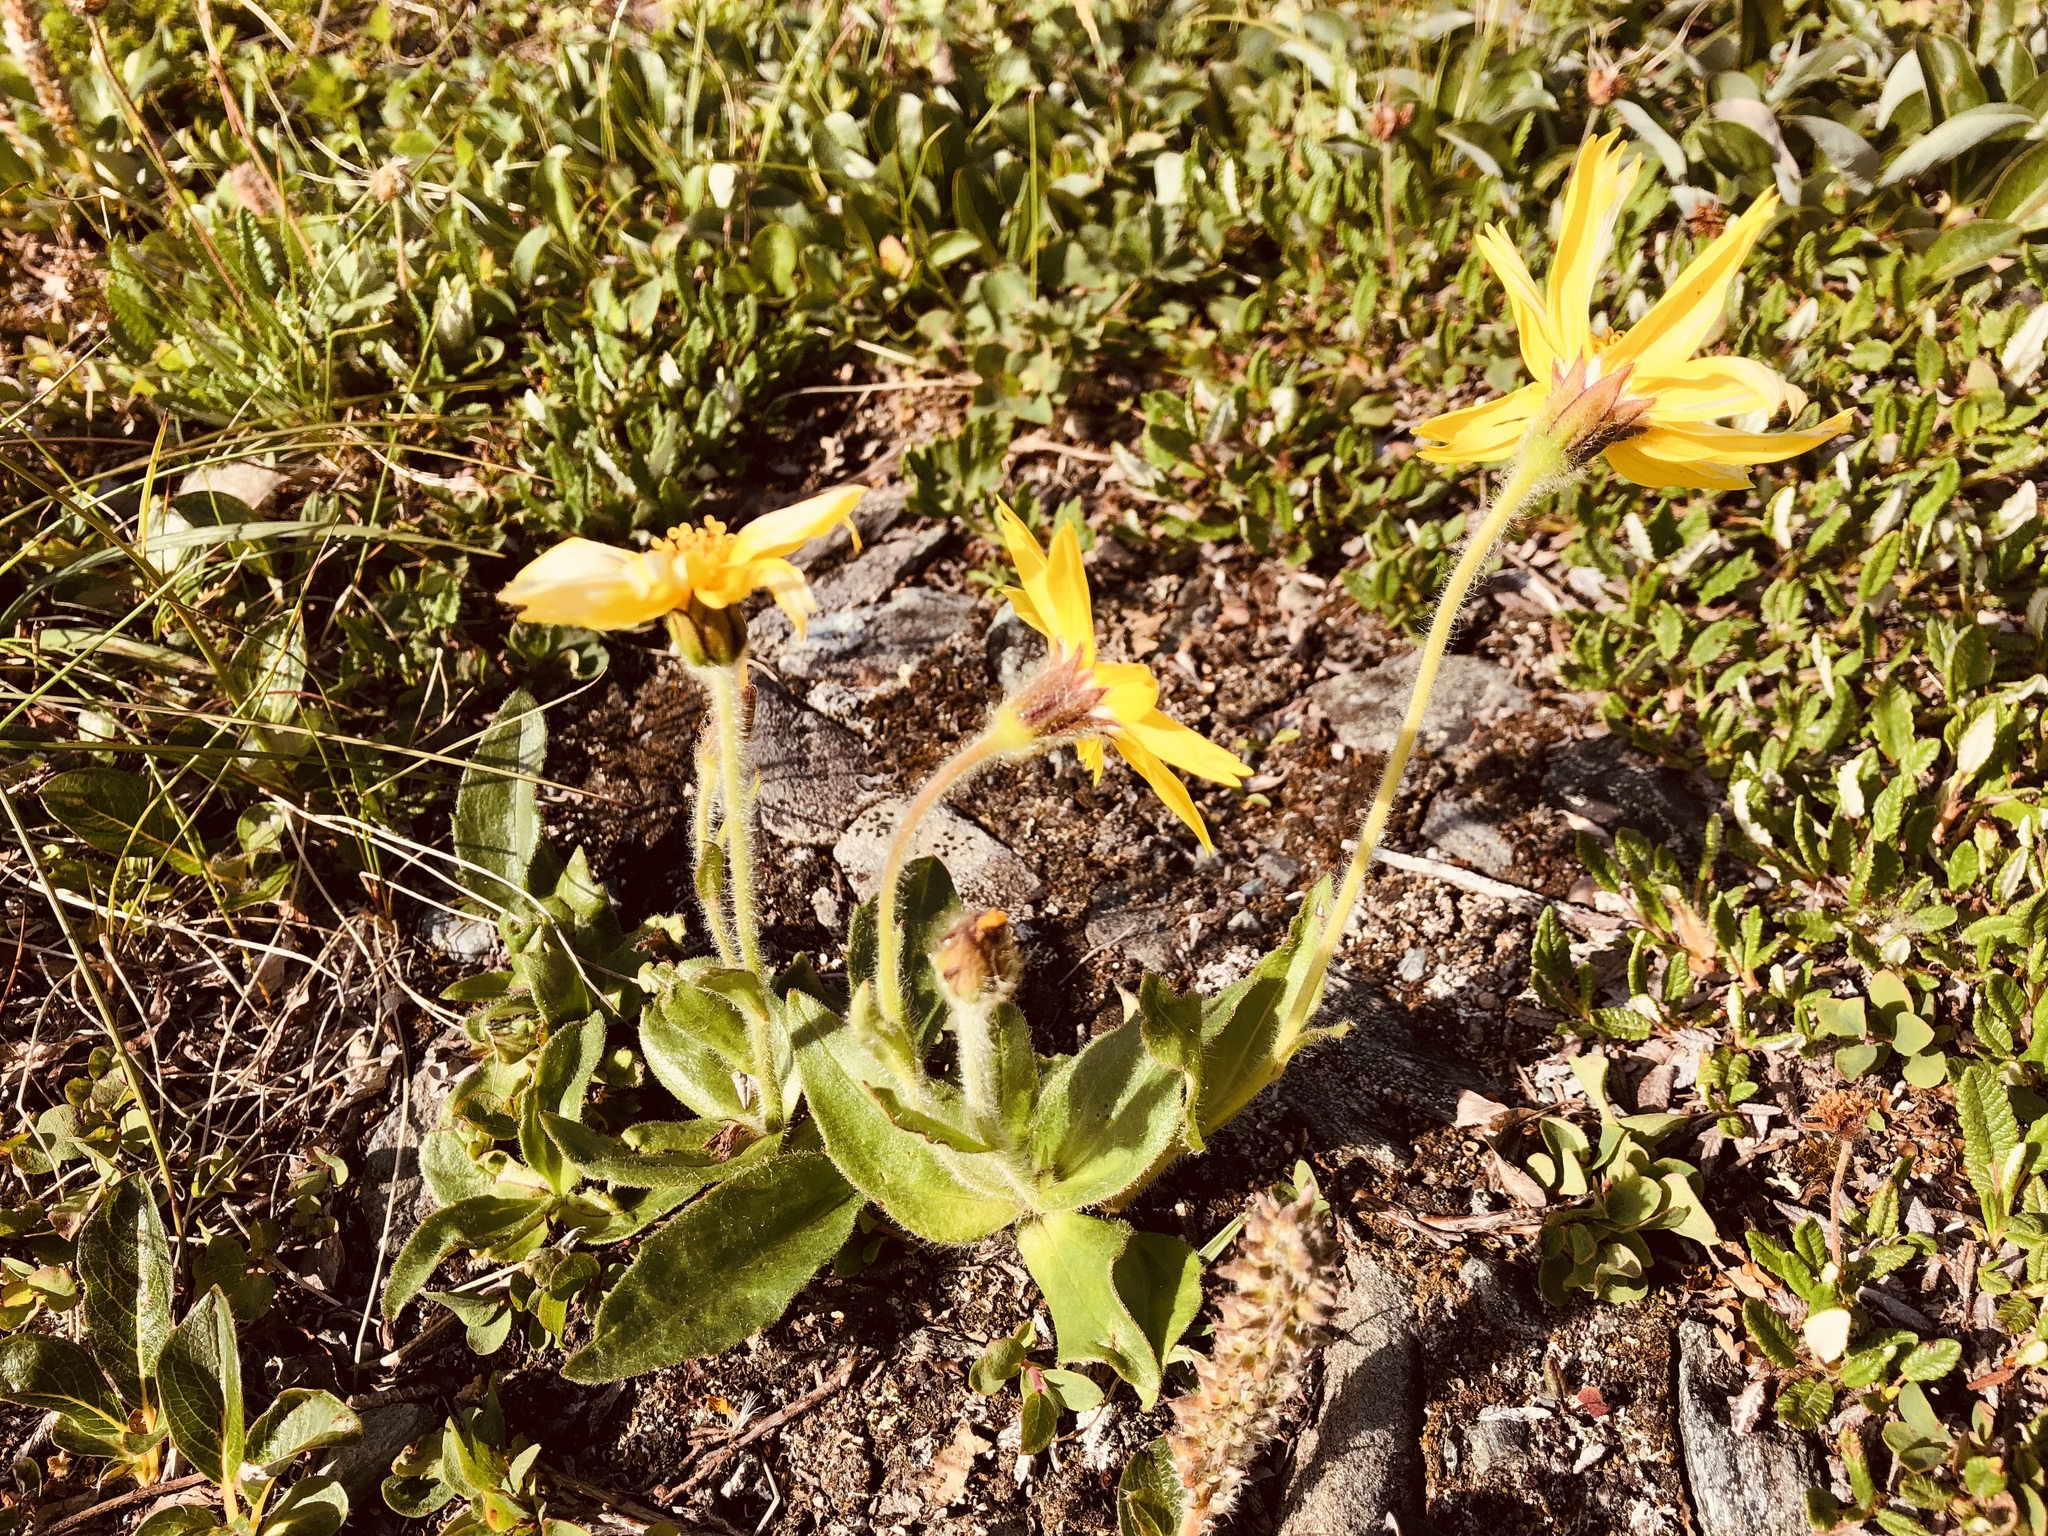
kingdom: Plantae
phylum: Tracheophyta
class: Magnoliopsida
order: Asterales
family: Asteraceae
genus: Arnica
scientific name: Arnica lessingii
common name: Nodding arnica
